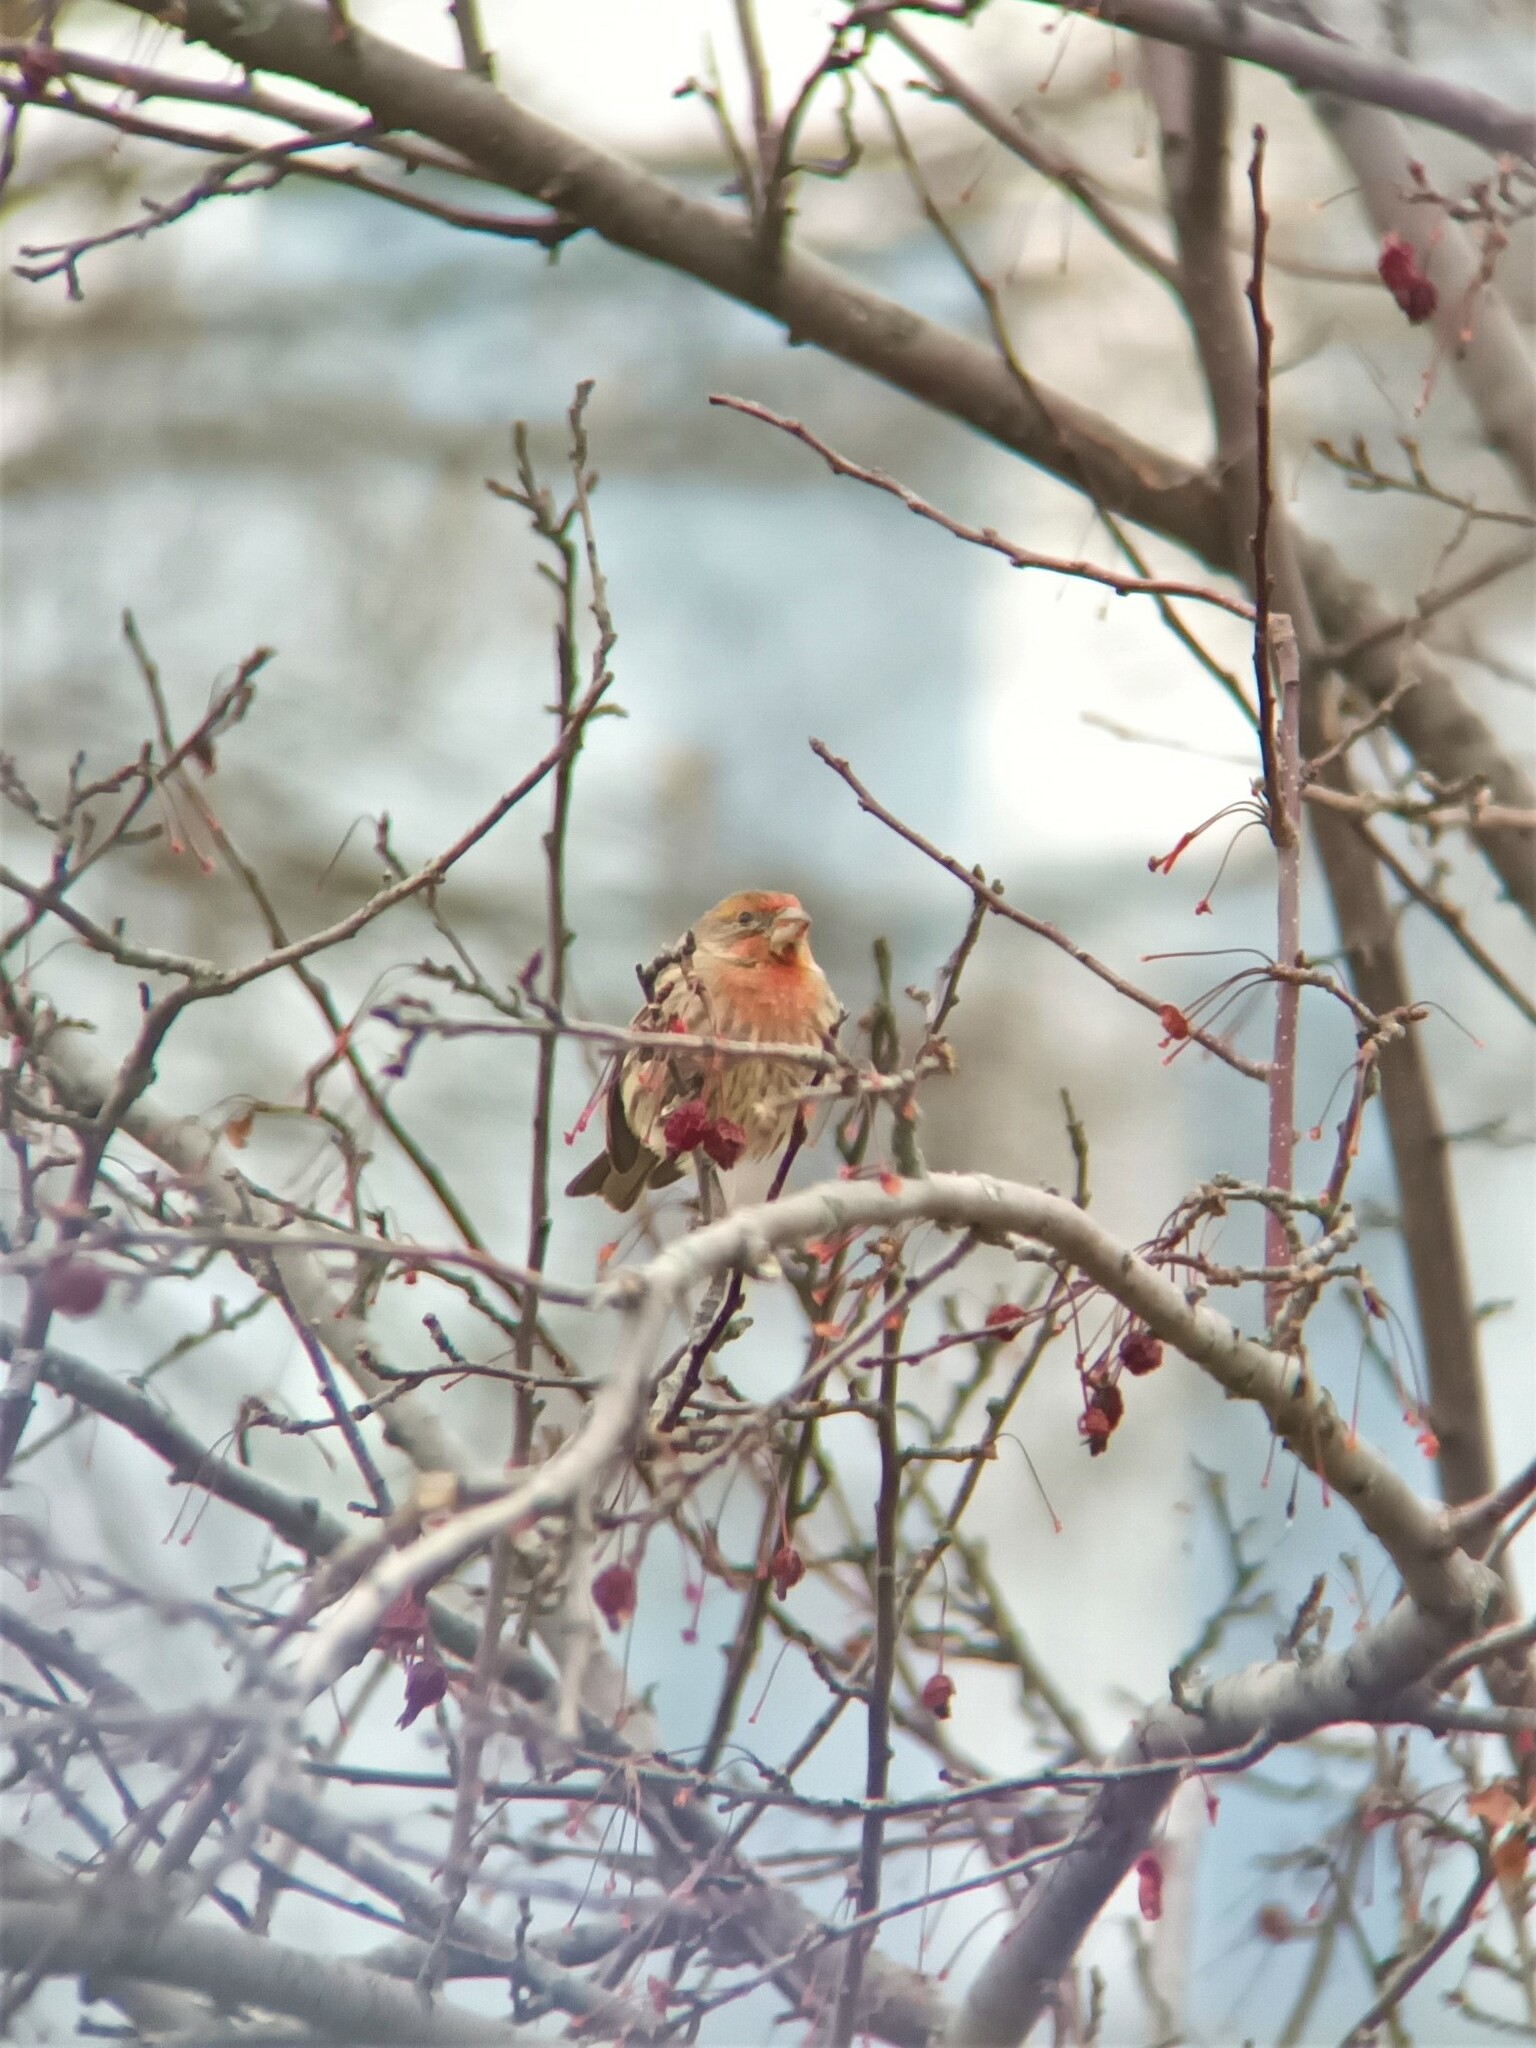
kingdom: Animalia
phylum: Chordata
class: Aves
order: Passeriformes
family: Fringillidae
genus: Haemorhous
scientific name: Haemorhous mexicanus
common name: House finch
